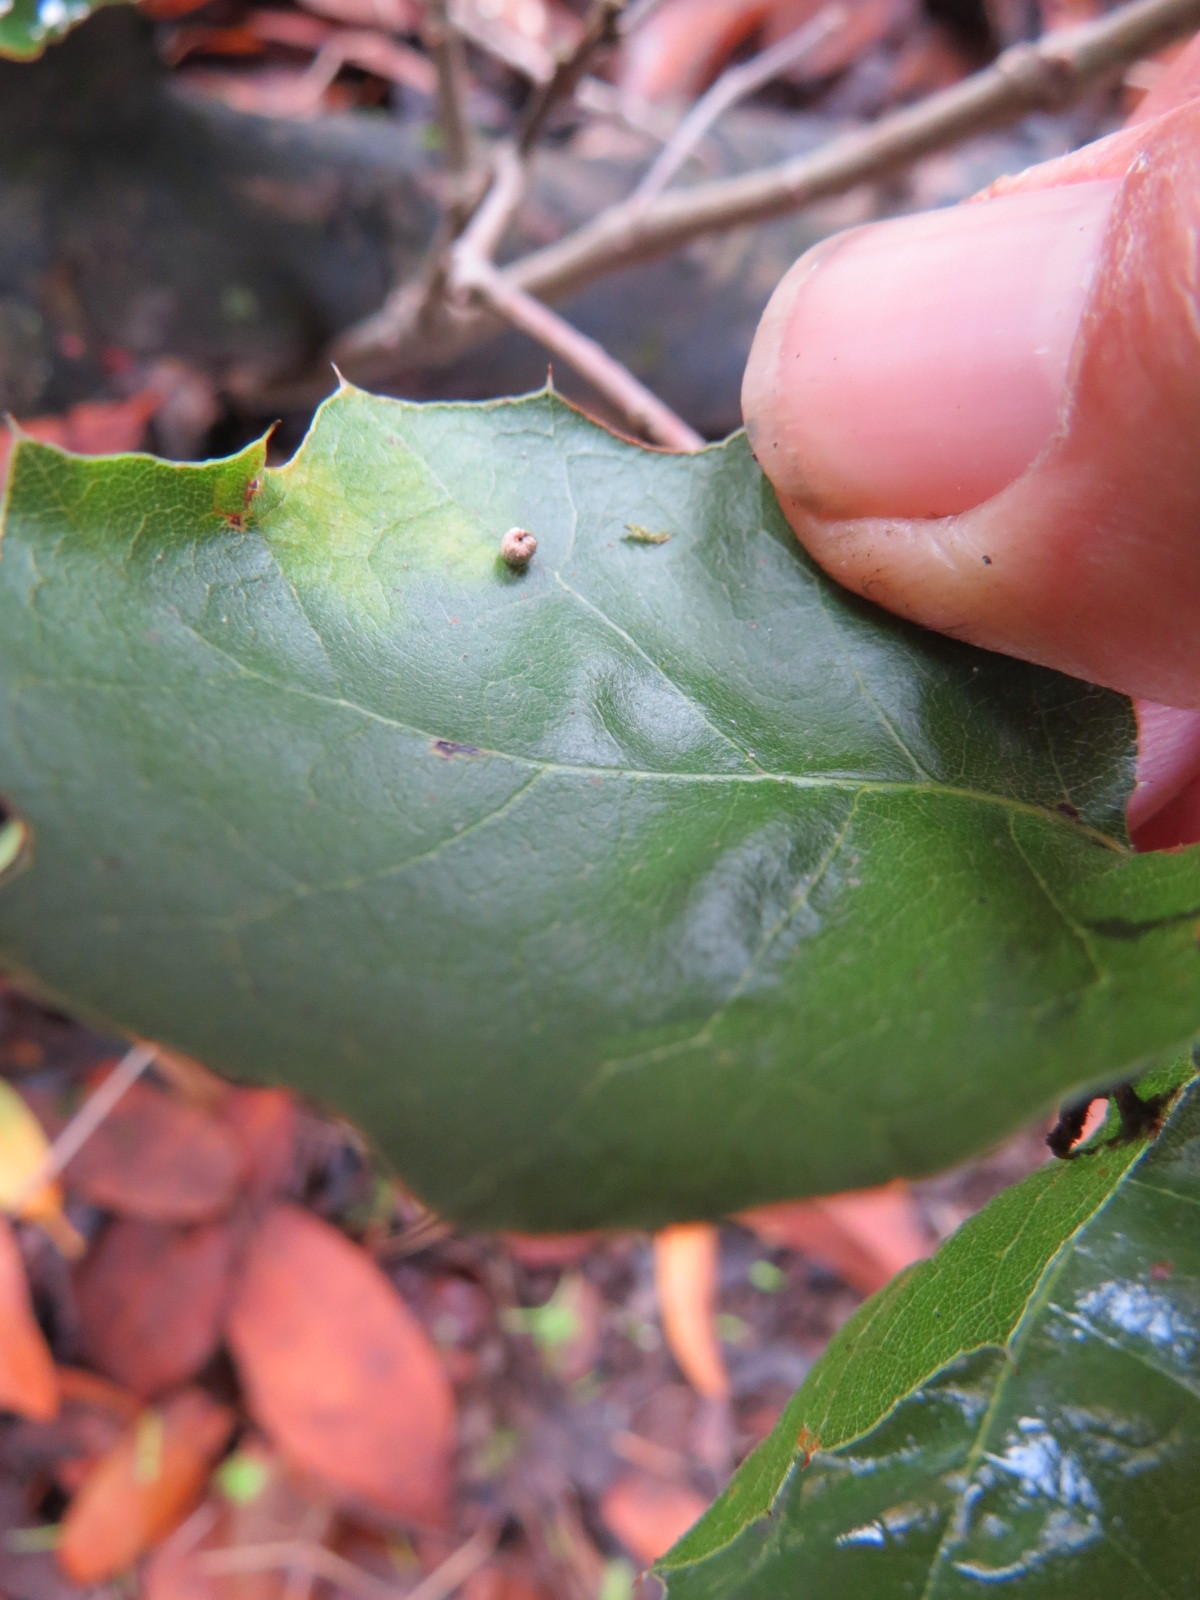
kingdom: Animalia
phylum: Arthropoda
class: Insecta
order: Hymenoptera
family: Cynipidae
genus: Dryocosmus
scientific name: Dryocosmus
